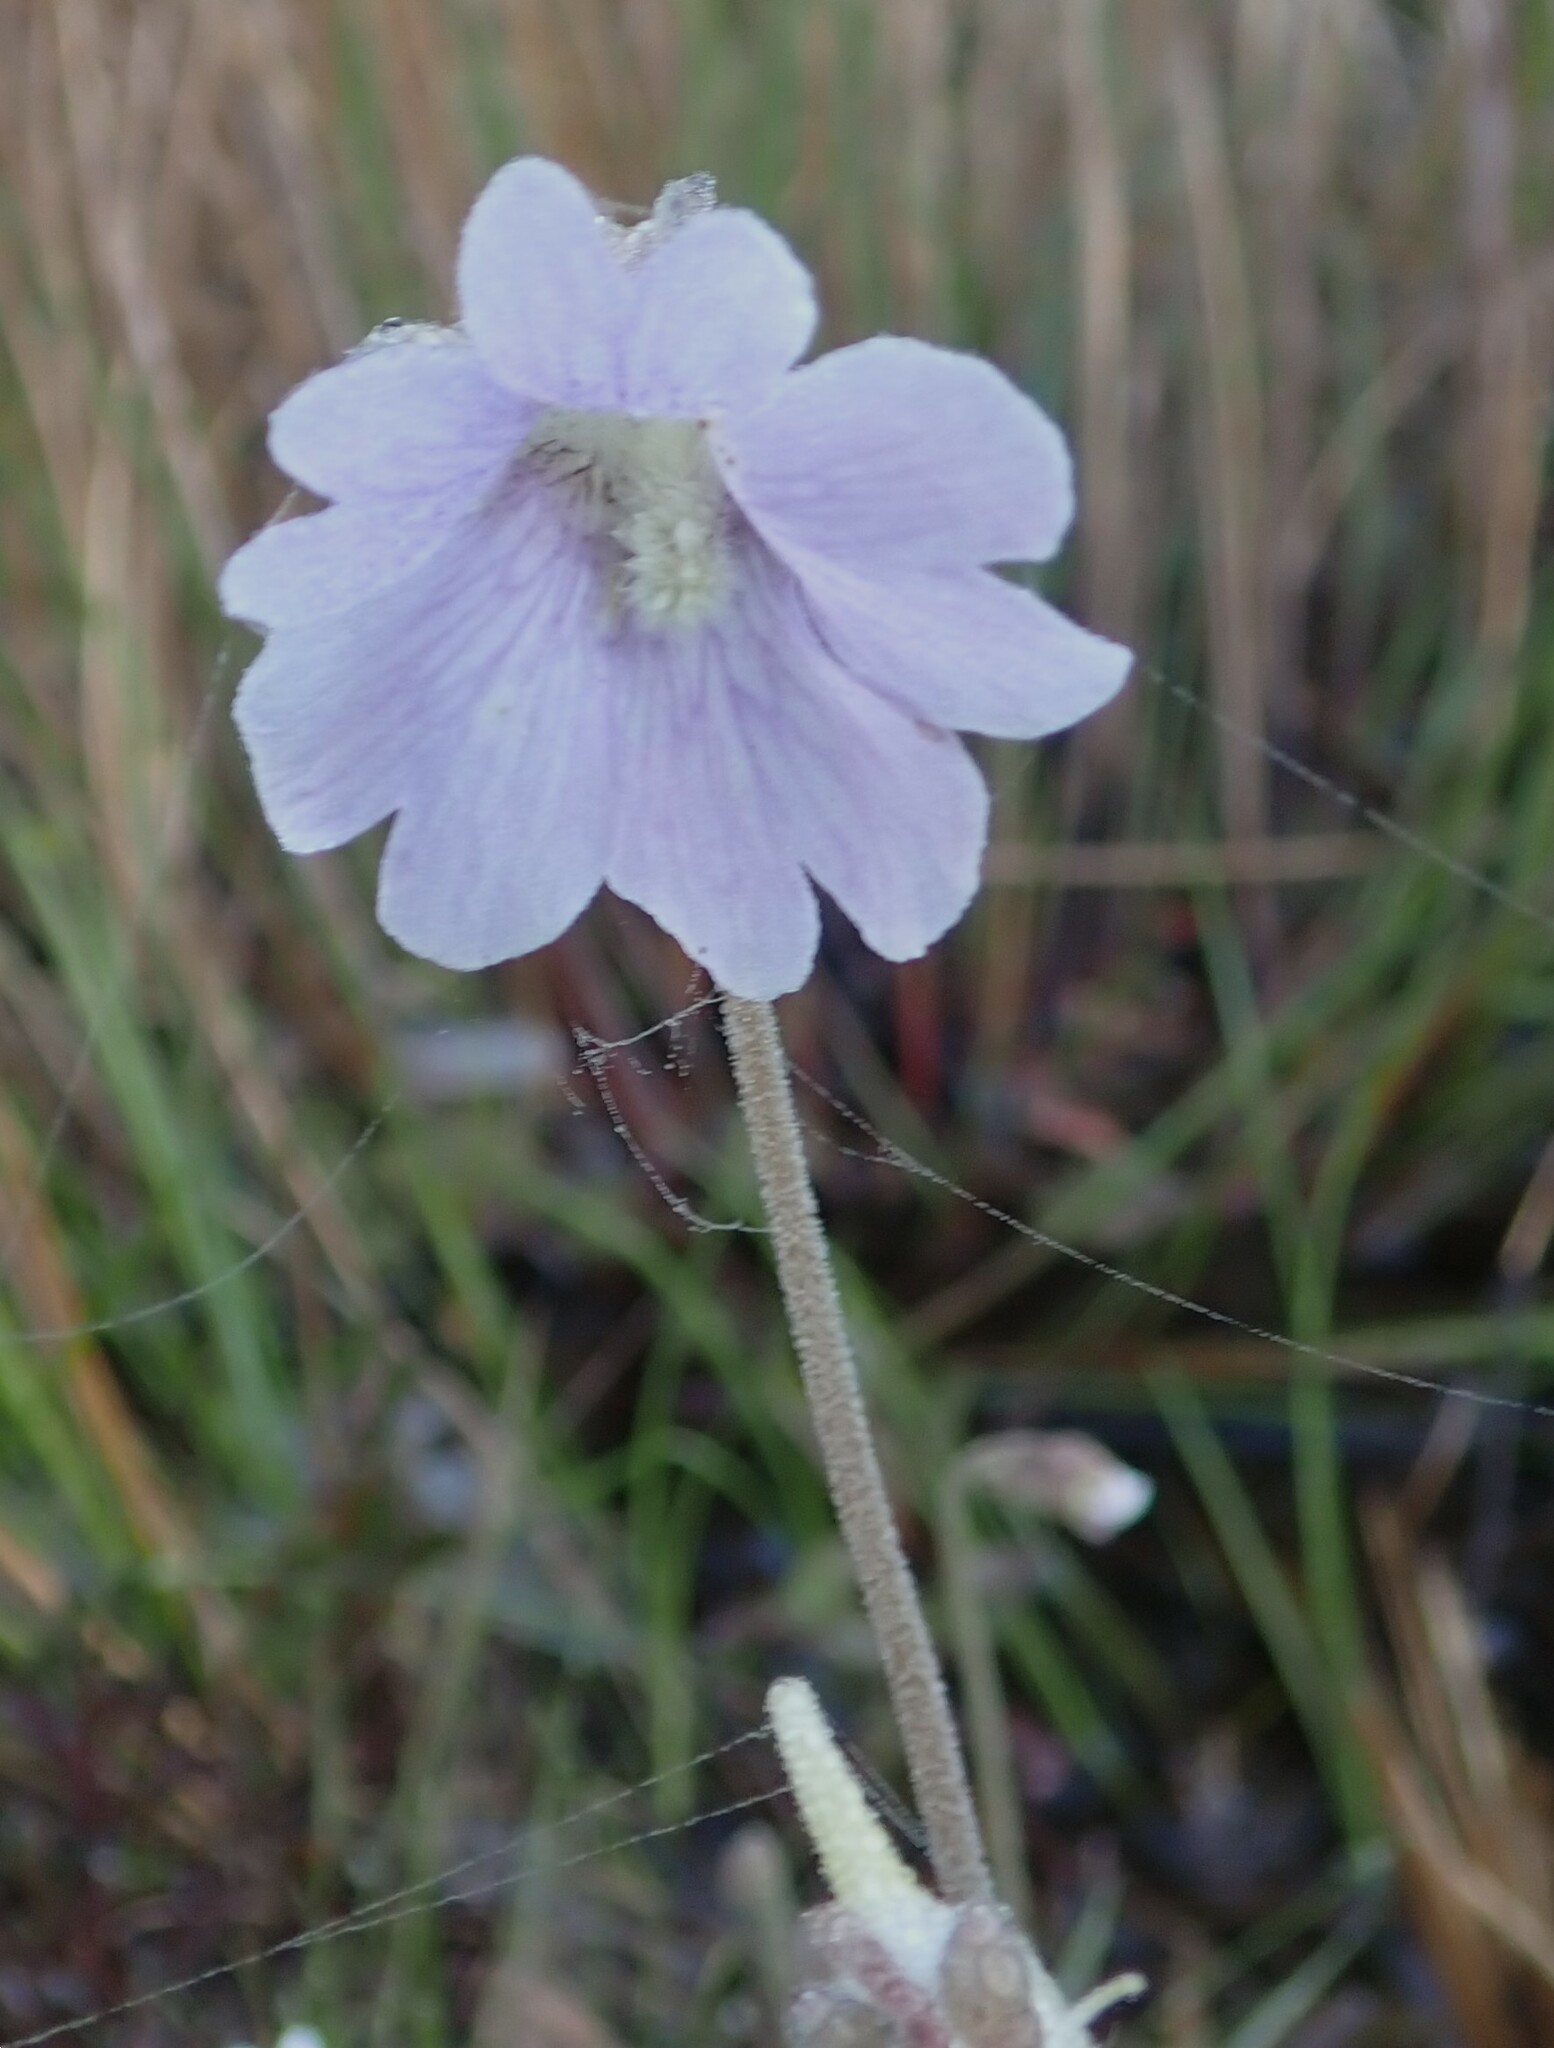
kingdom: Plantae
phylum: Tracheophyta
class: Magnoliopsida
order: Lamiales
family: Lentibulariaceae
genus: Pinguicula
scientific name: Pinguicula caerulea
